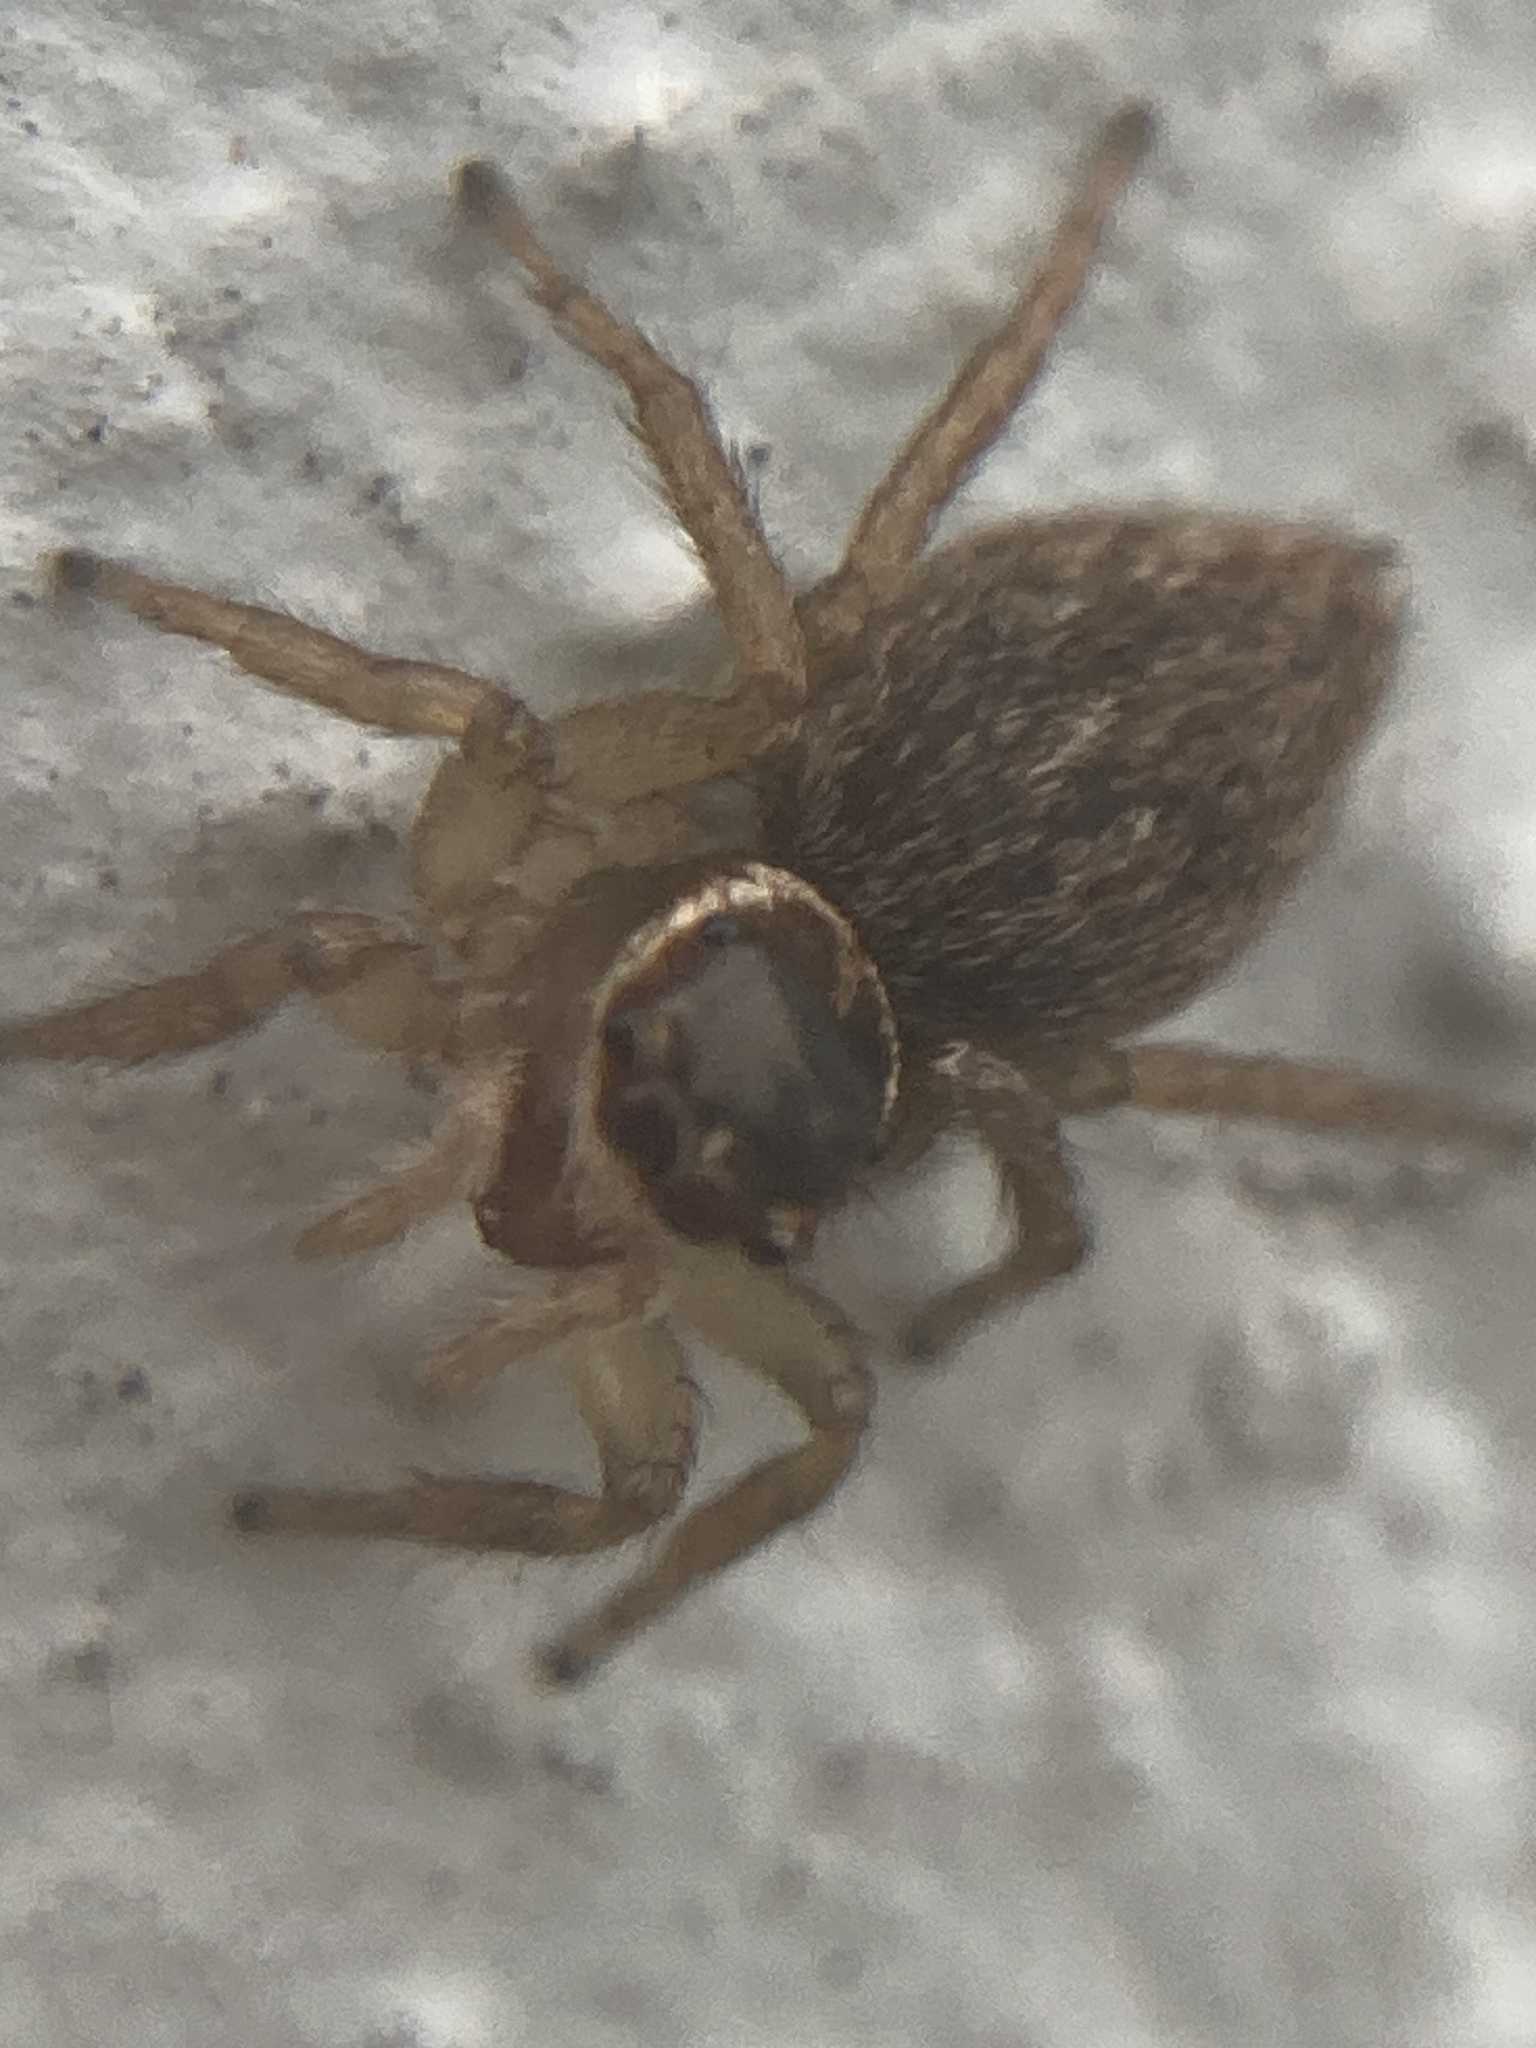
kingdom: Animalia
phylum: Arthropoda
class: Arachnida
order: Araneae
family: Salticidae
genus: Maratus
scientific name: Maratus griseus
